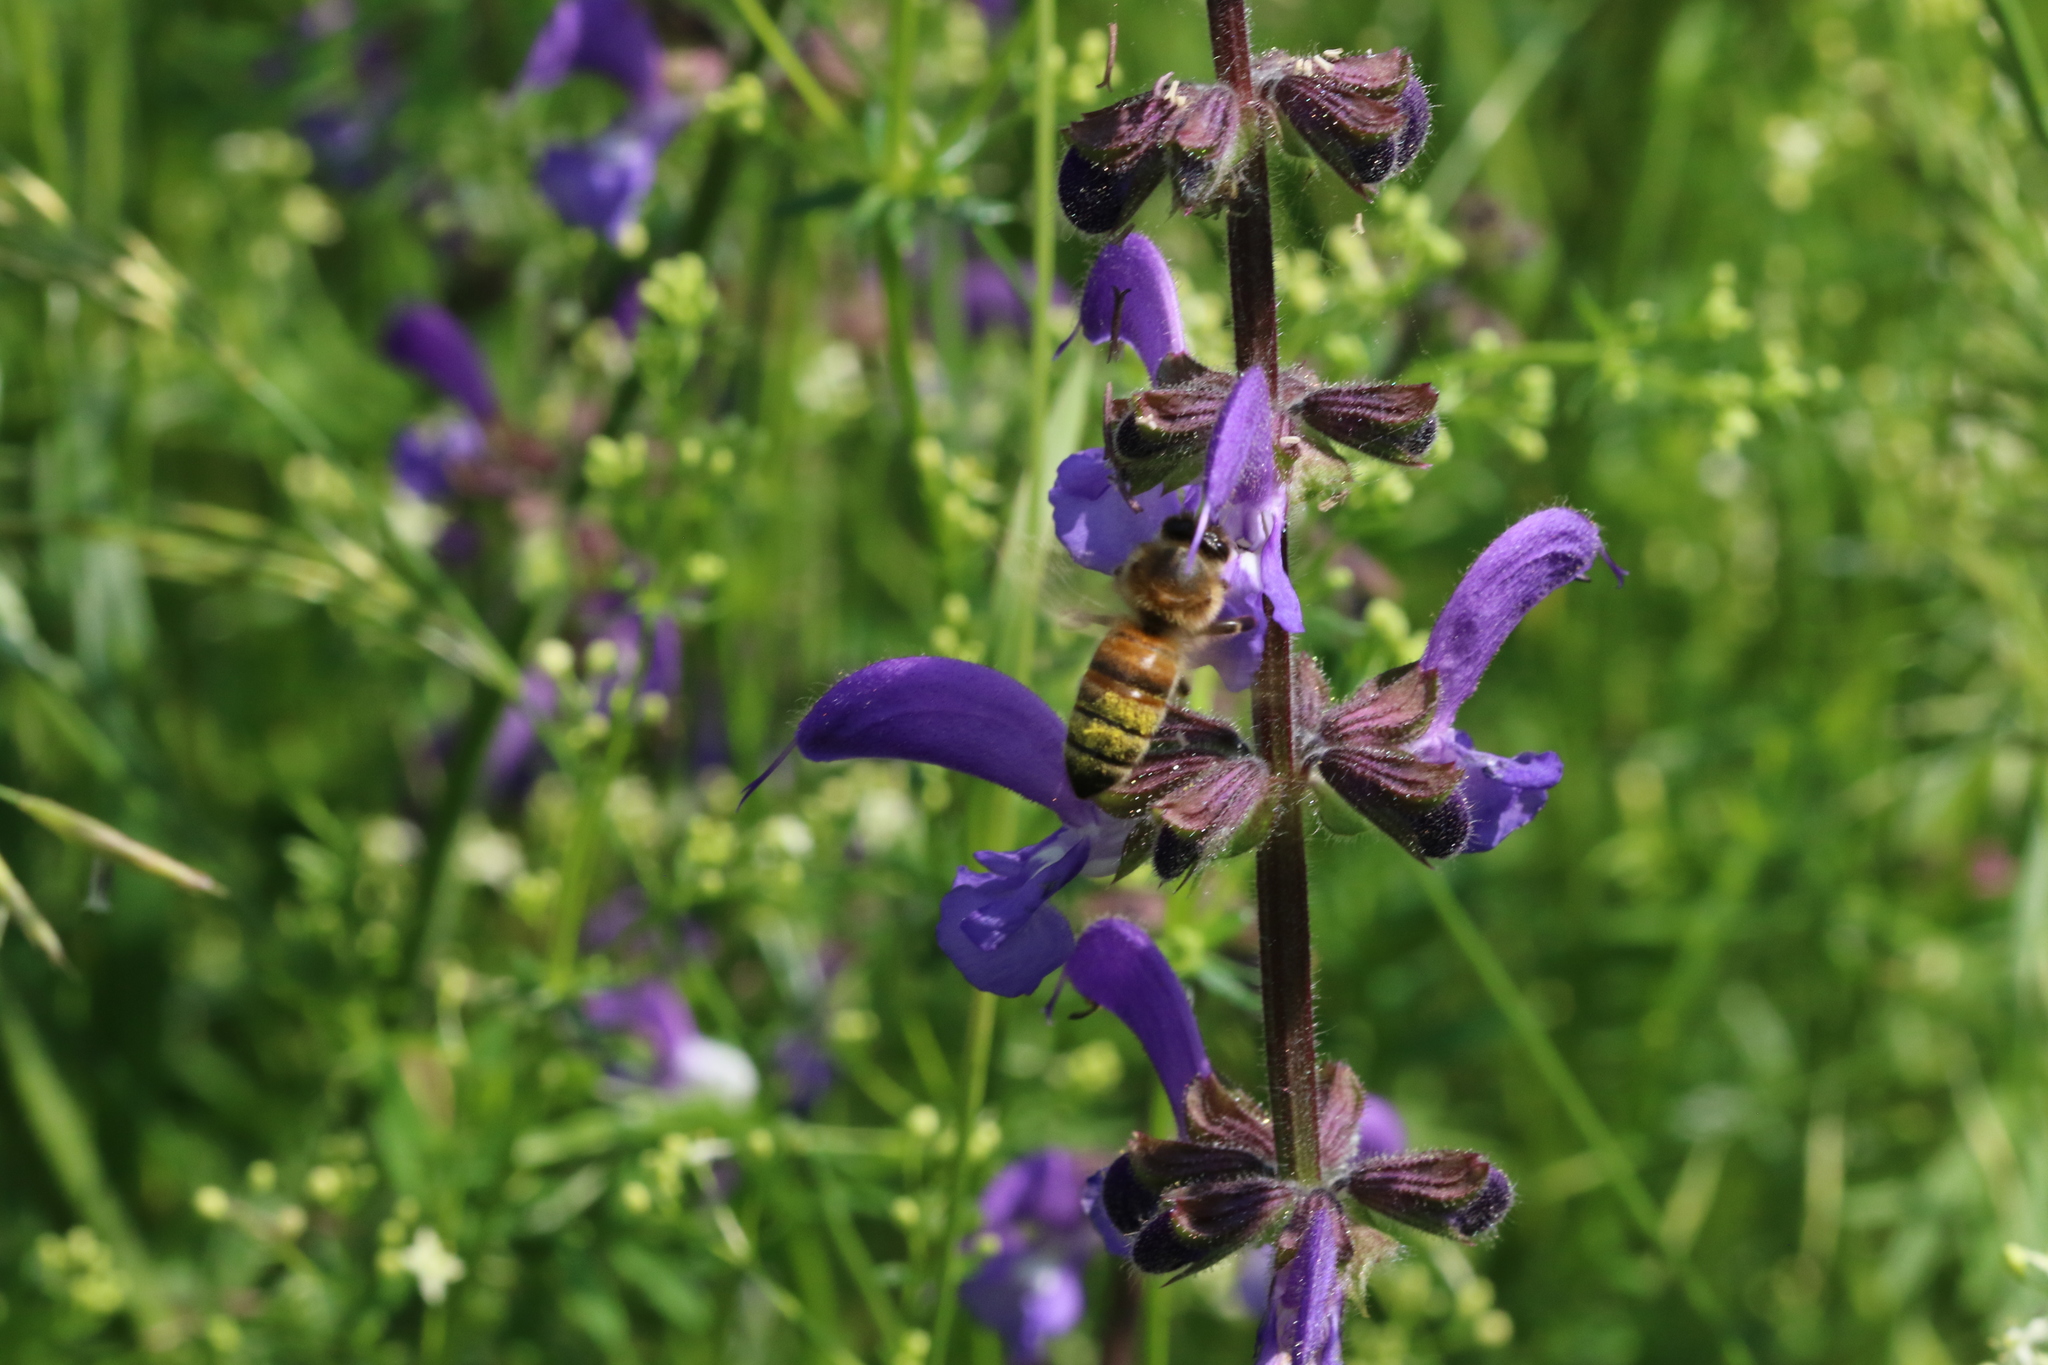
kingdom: Animalia
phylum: Arthropoda
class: Insecta
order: Hymenoptera
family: Apidae
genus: Apis
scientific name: Apis mellifera
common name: Honey bee
